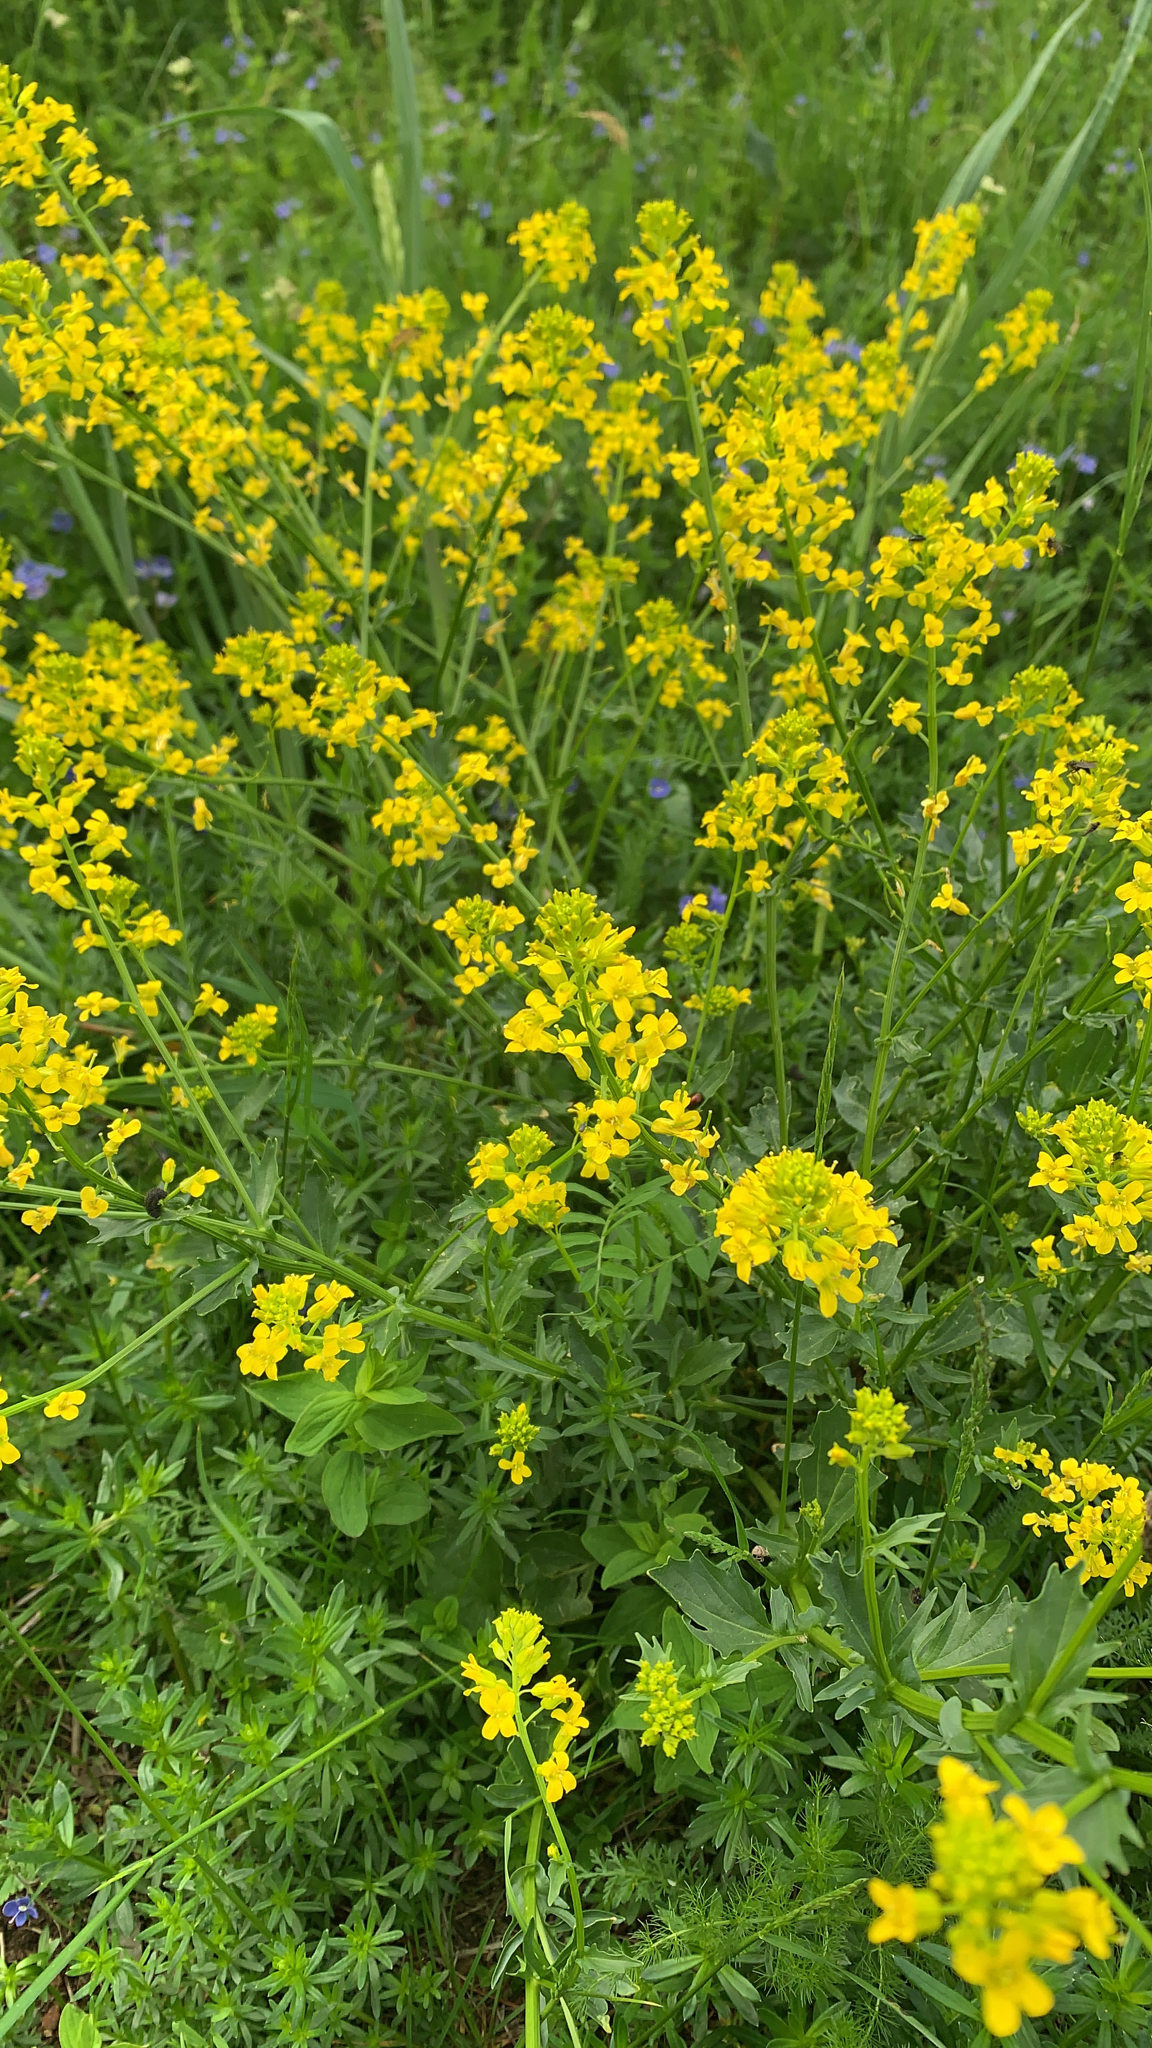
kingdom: Plantae
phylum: Tracheophyta
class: Magnoliopsida
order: Brassicales
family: Brassicaceae
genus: Barbarea
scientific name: Barbarea vulgaris
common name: Cressy-greens
